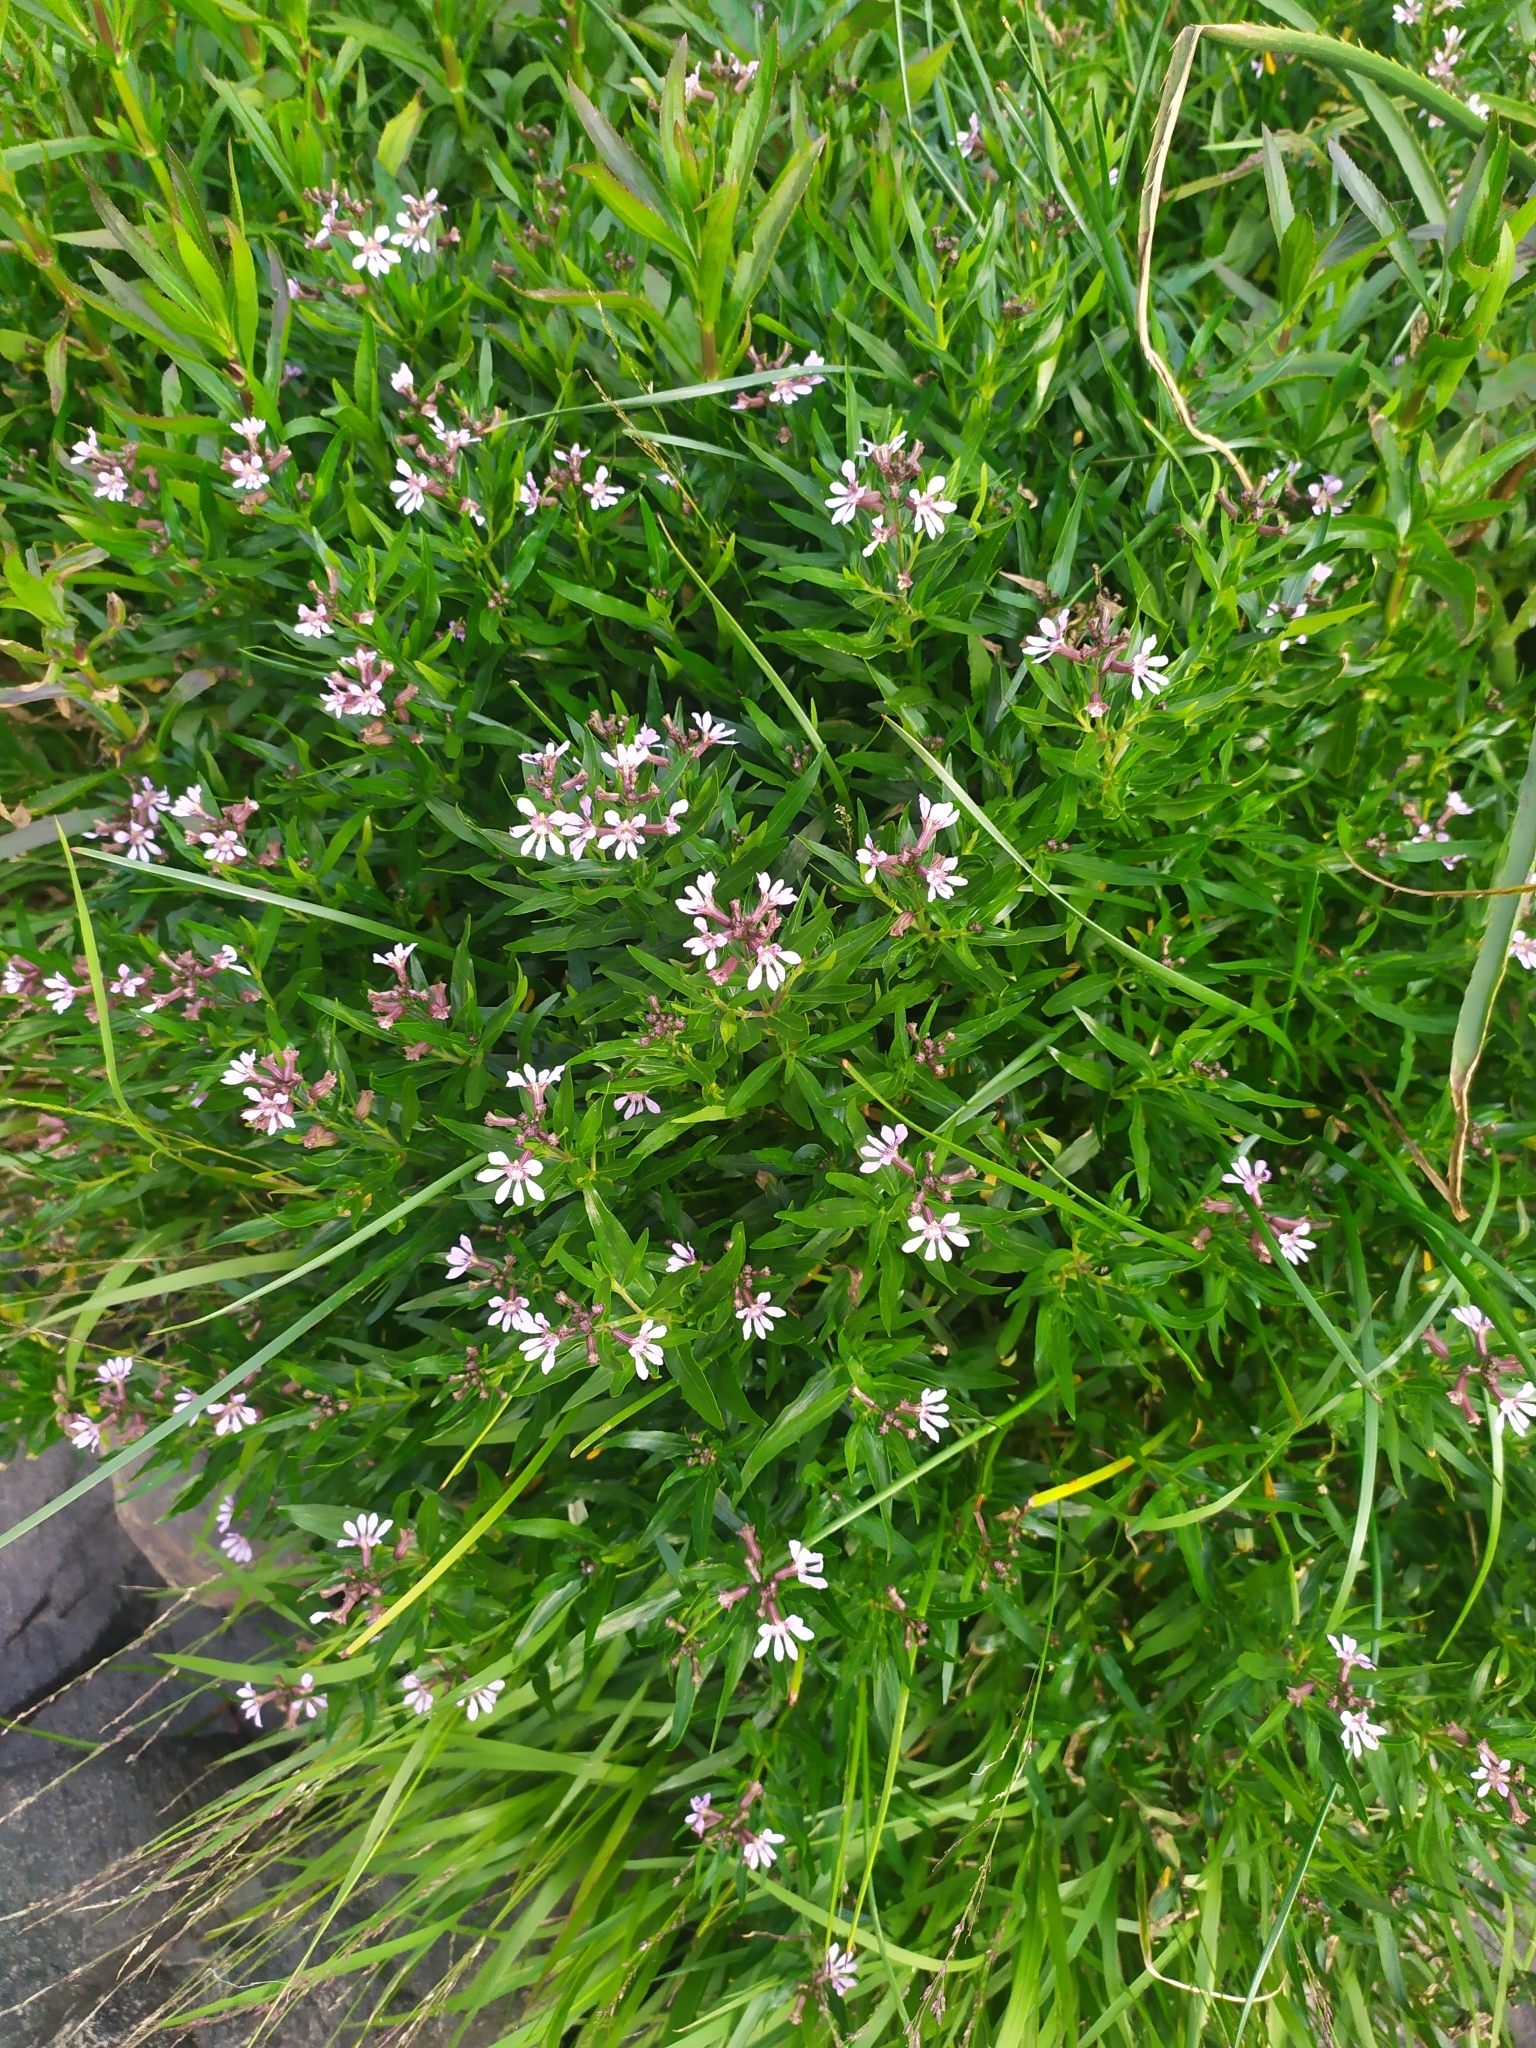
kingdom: Plantae
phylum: Tracheophyta
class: Magnoliopsida
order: Myrtales
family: Lythraceae
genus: Cuphea
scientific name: Cuphea fruticosa
